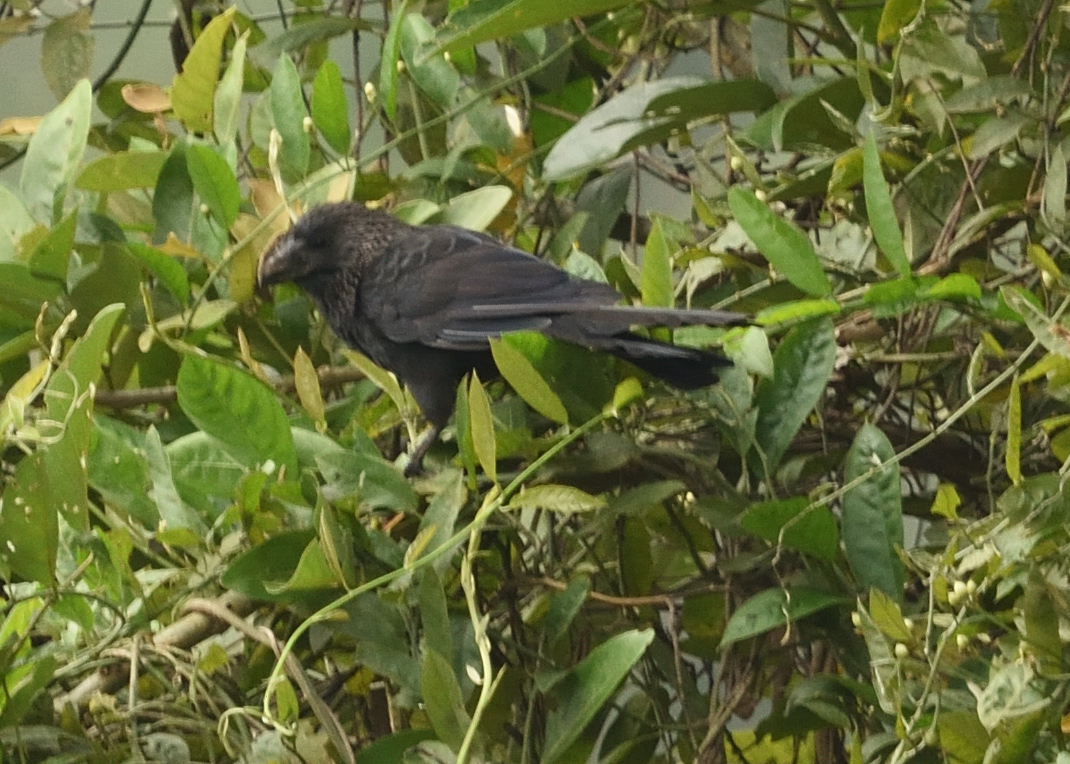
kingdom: Animalia
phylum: Chordata
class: Aves
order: Cuculiformes
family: Cuculidae
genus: Crotophaga
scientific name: Crotophaga ani
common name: Smooth-billed ani
